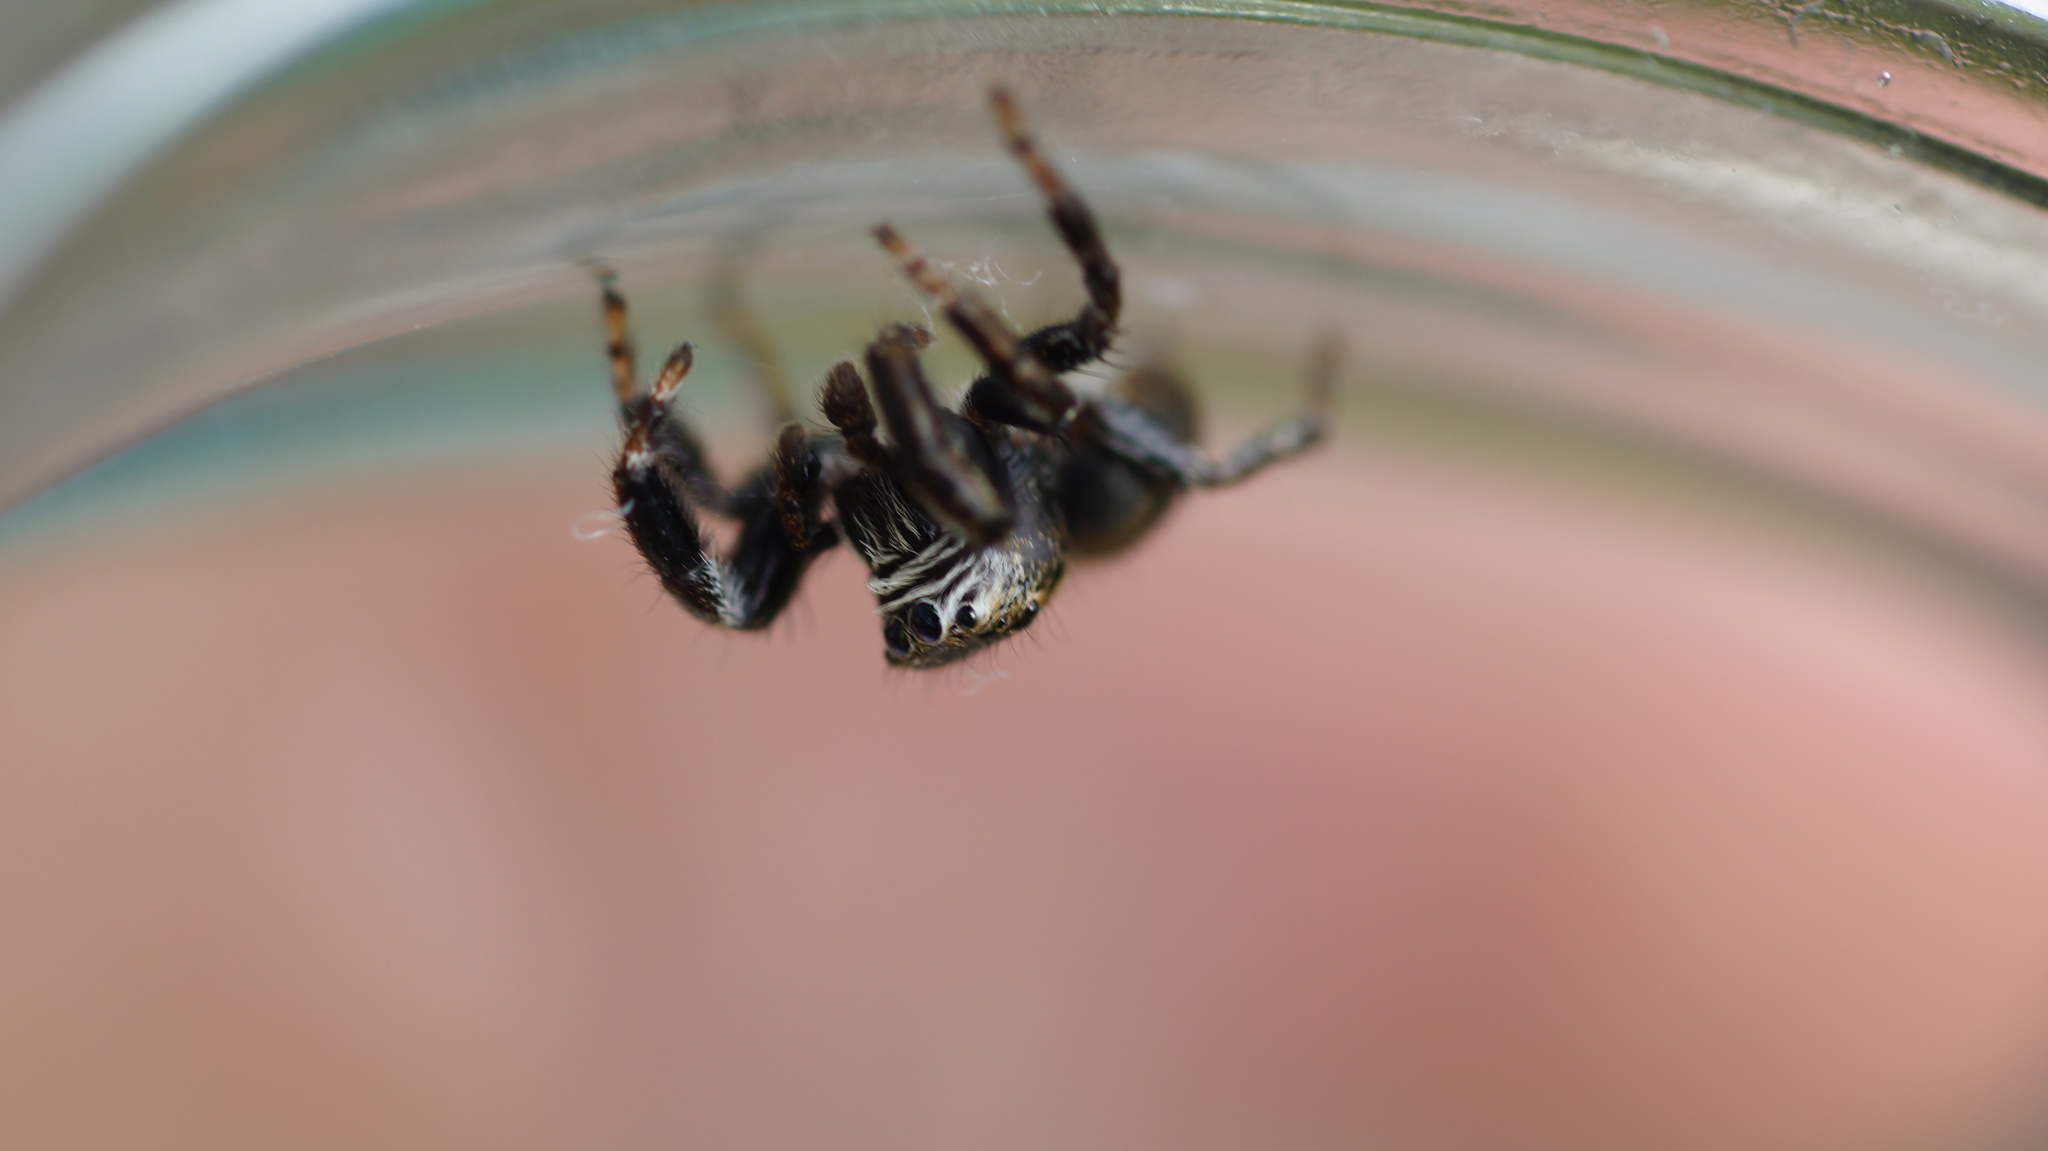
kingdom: Animalia
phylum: Arthropoda
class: Arachnida
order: Araneae
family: Salticidae
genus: Evarcha
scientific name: Evarcha arcuata
